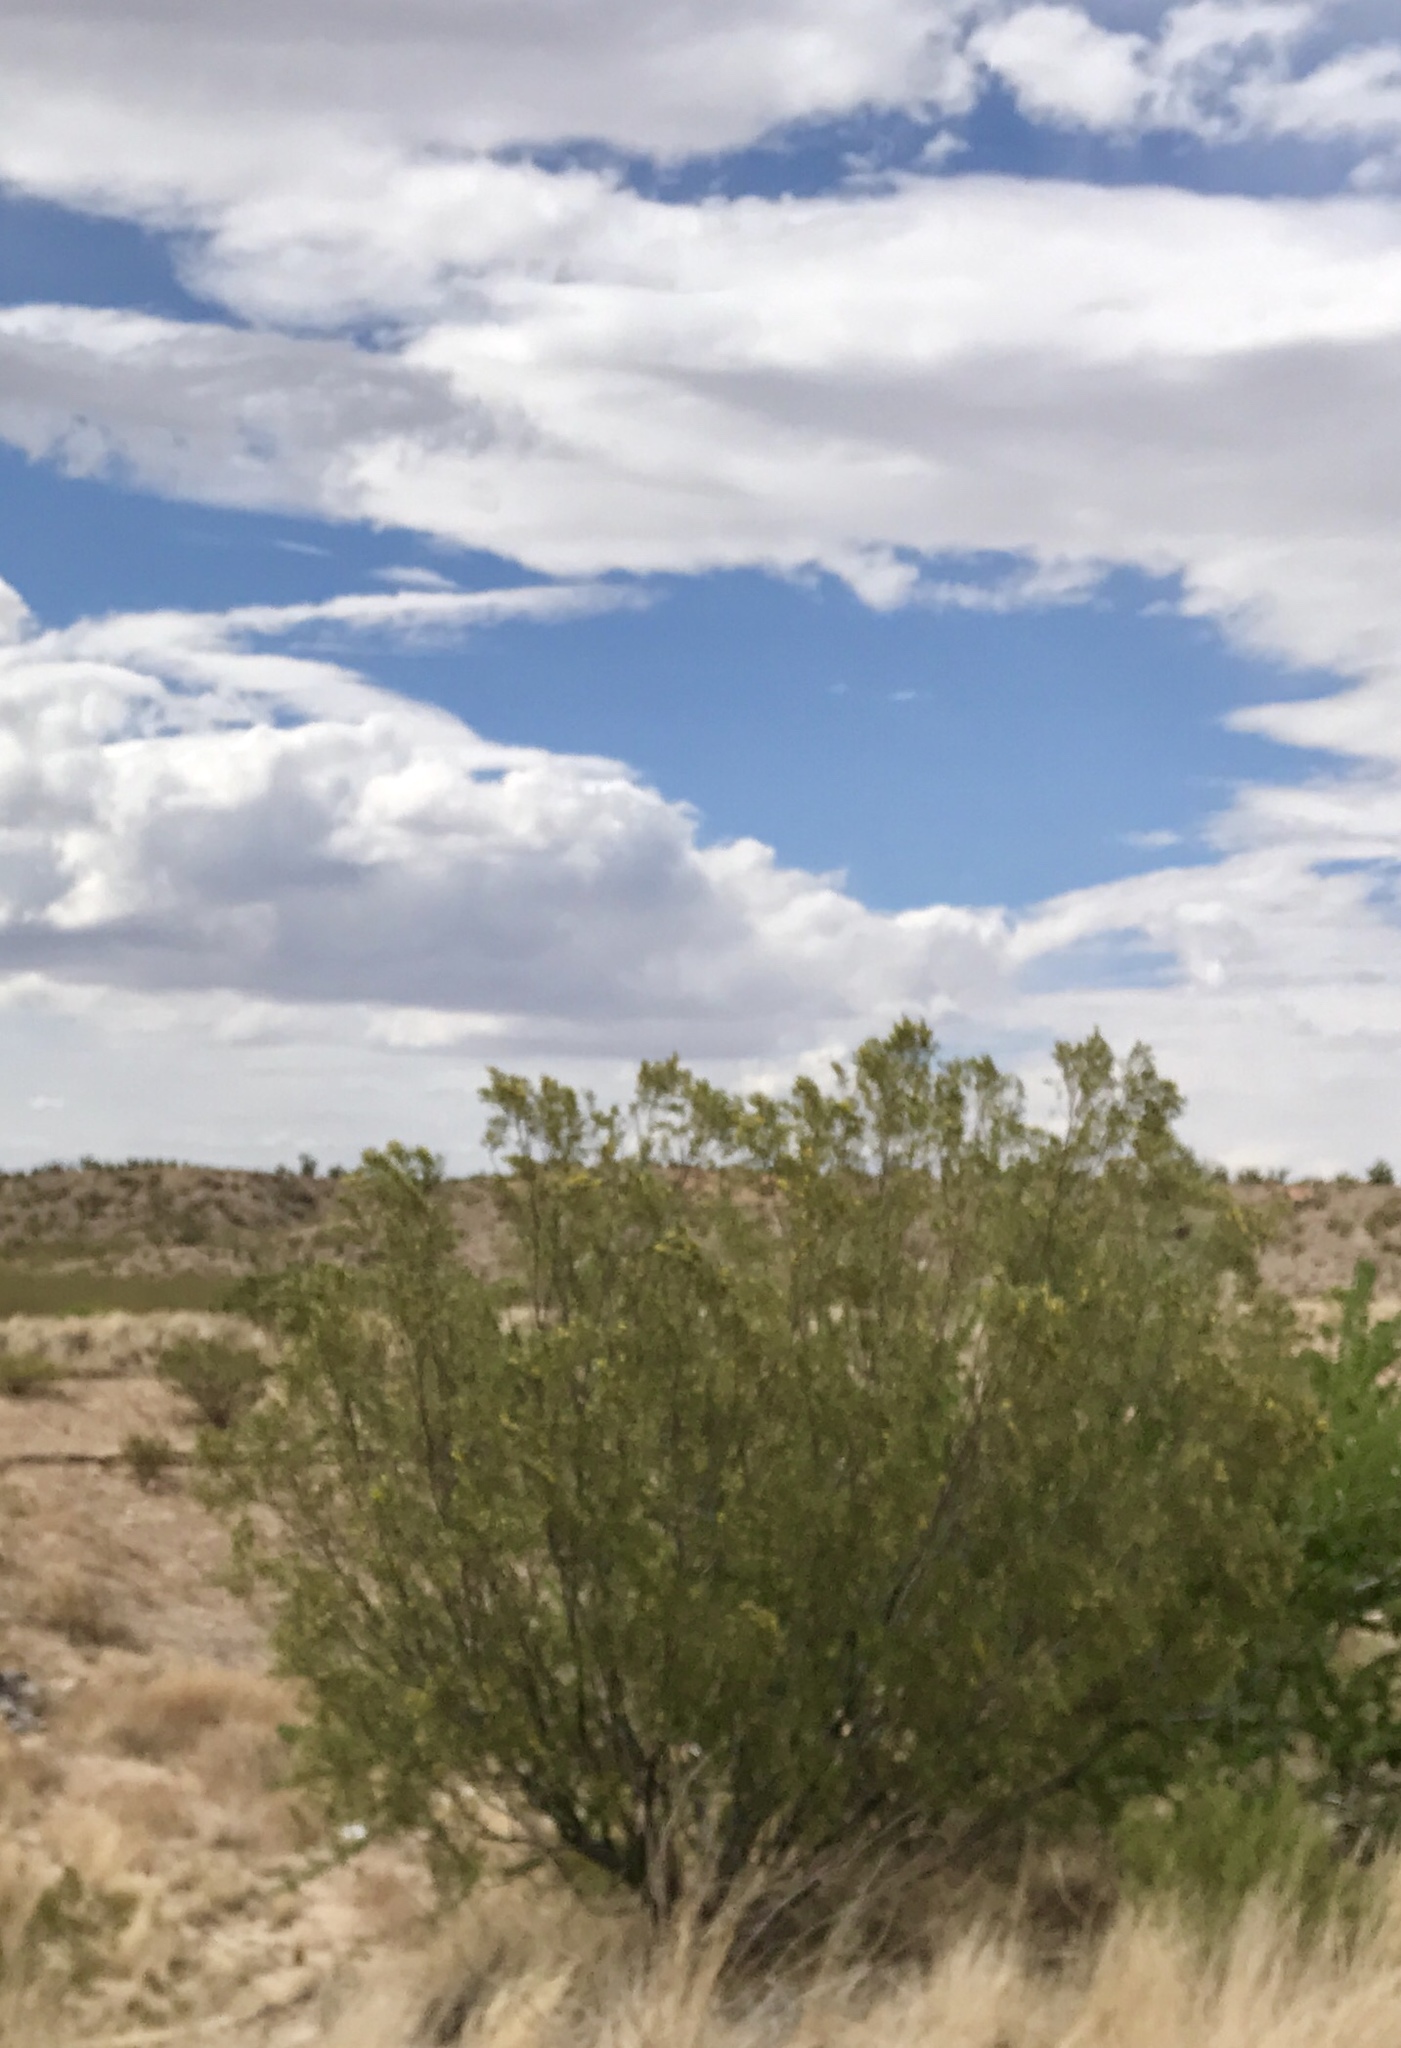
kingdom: Plantae
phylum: Tracheophyta
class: Magnoliopsida
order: Zygophyllales
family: Zygophyllaceae
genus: Larrea
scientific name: Larrea tridentata
